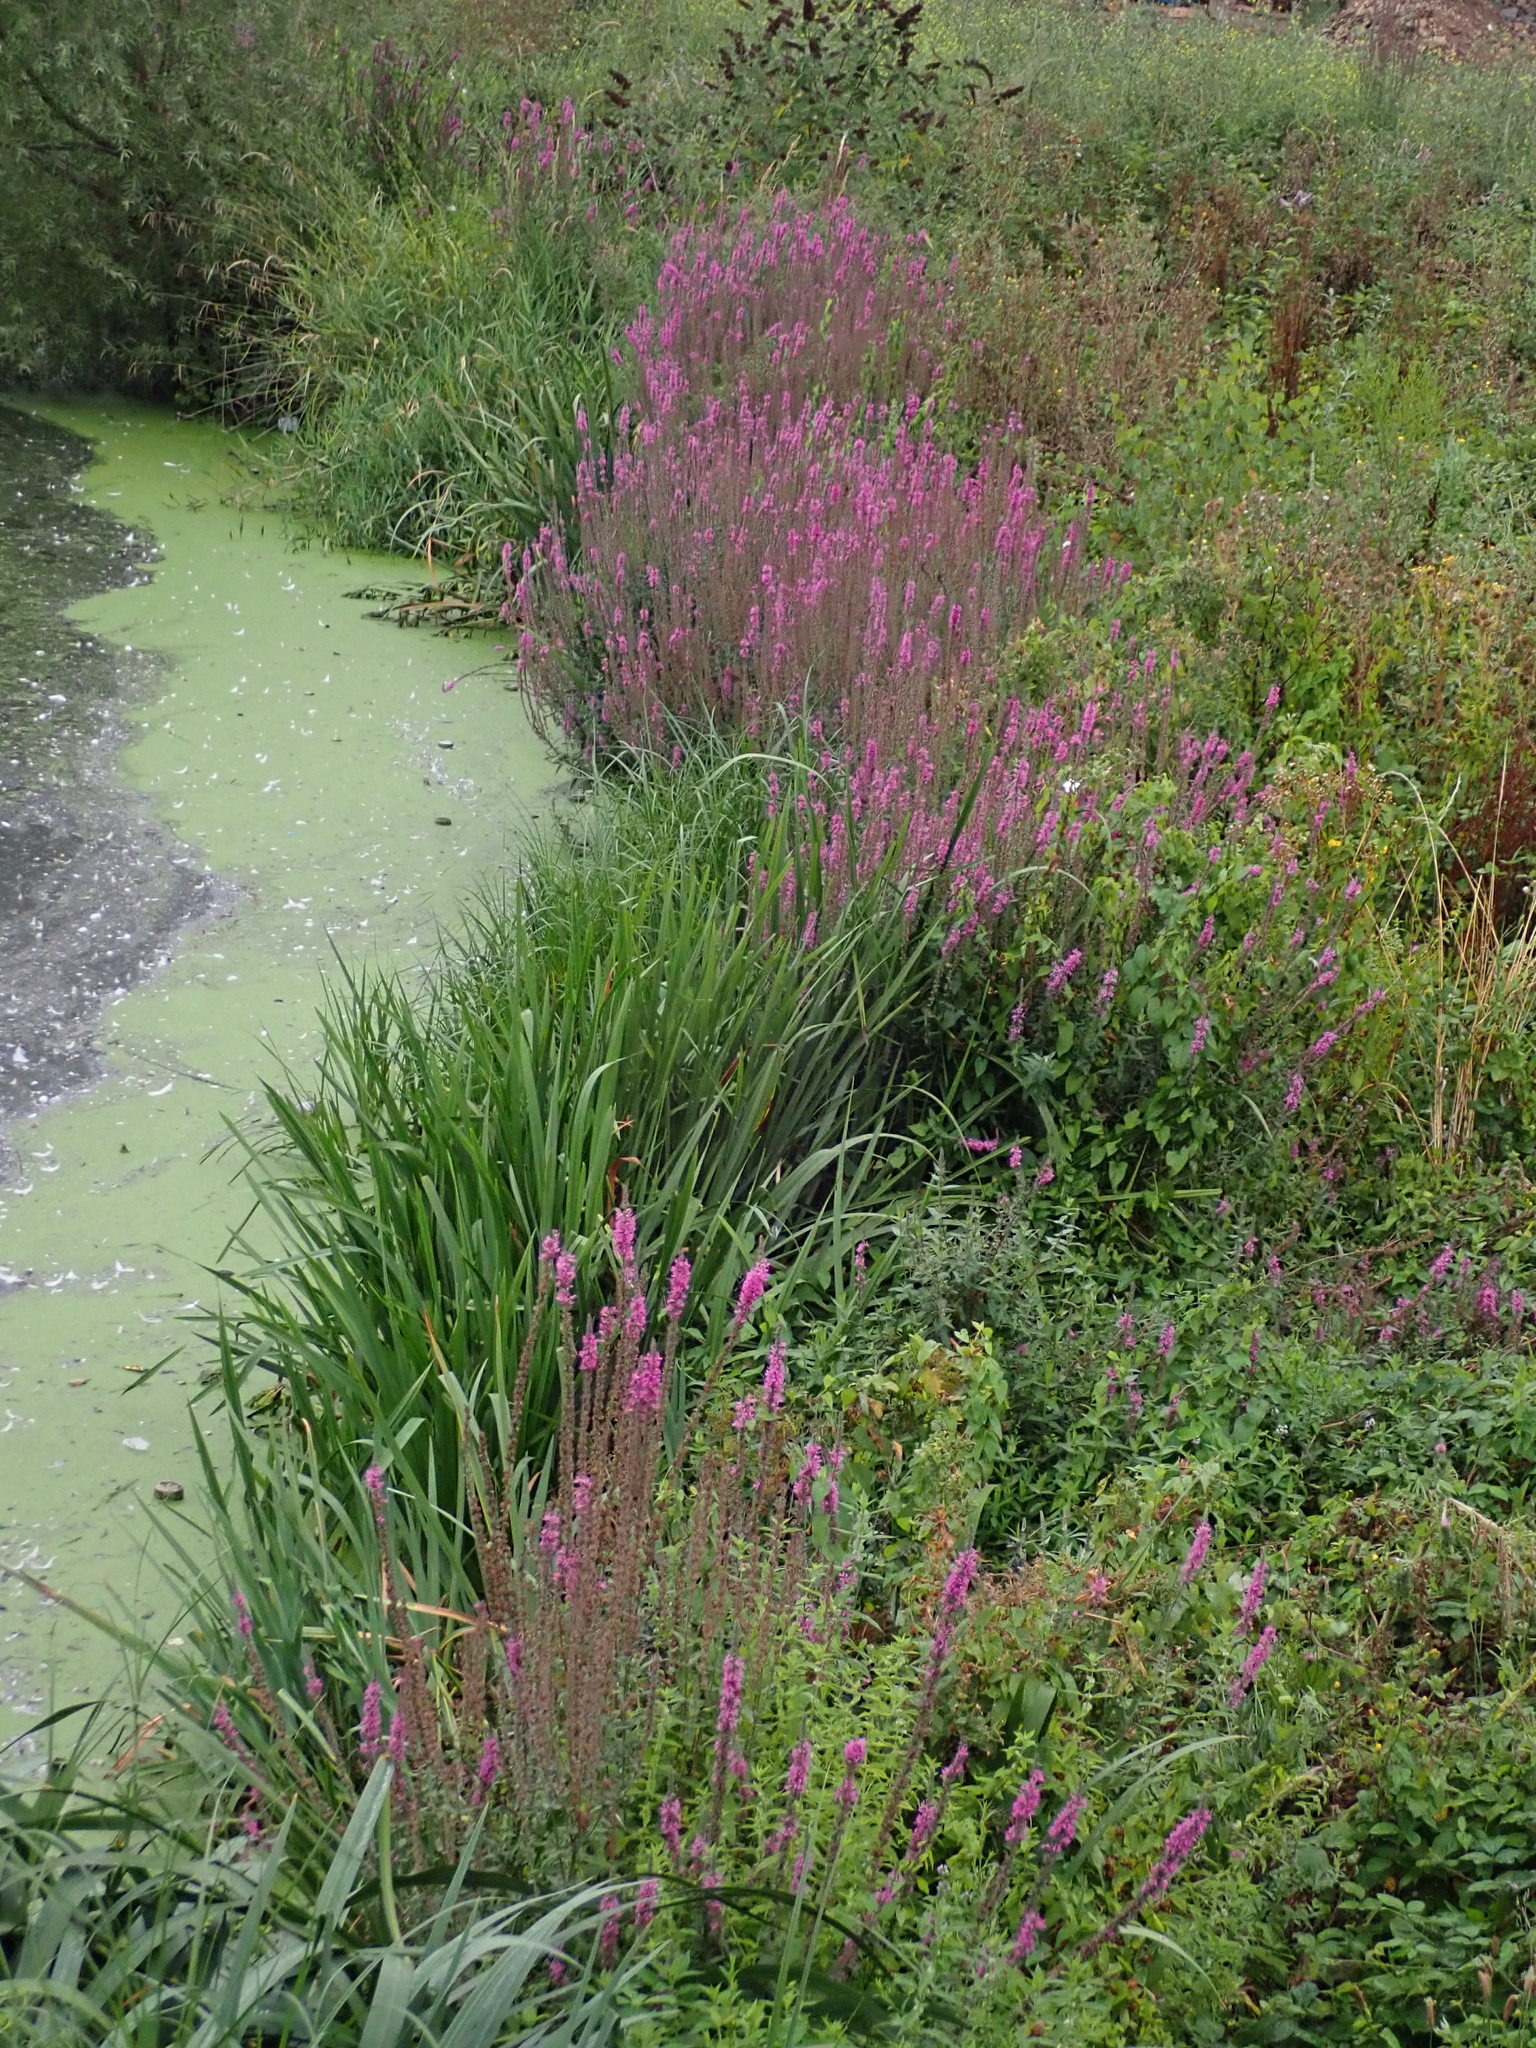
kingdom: Plantae
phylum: Tracheophyta
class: Magnoliopsida
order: Myrtales
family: Lythraceae
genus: Lythrum
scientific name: Lythrum salicaria
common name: Purple loosestrife
